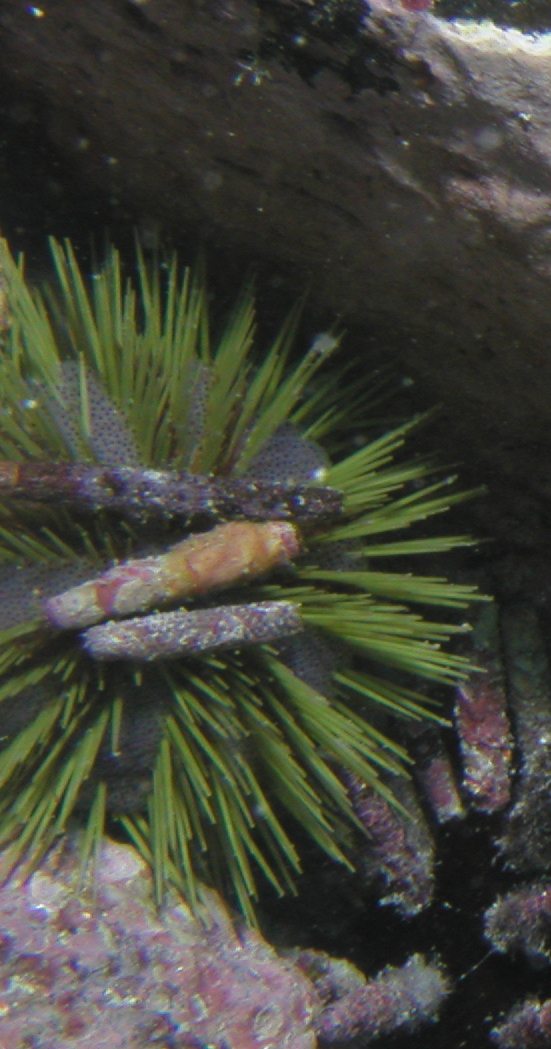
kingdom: Animalia
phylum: Echinodermata
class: Echinoidea
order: Camarodonta
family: Toxopneustidae
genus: Lytechinus
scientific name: Lytechinus semituberculatus
